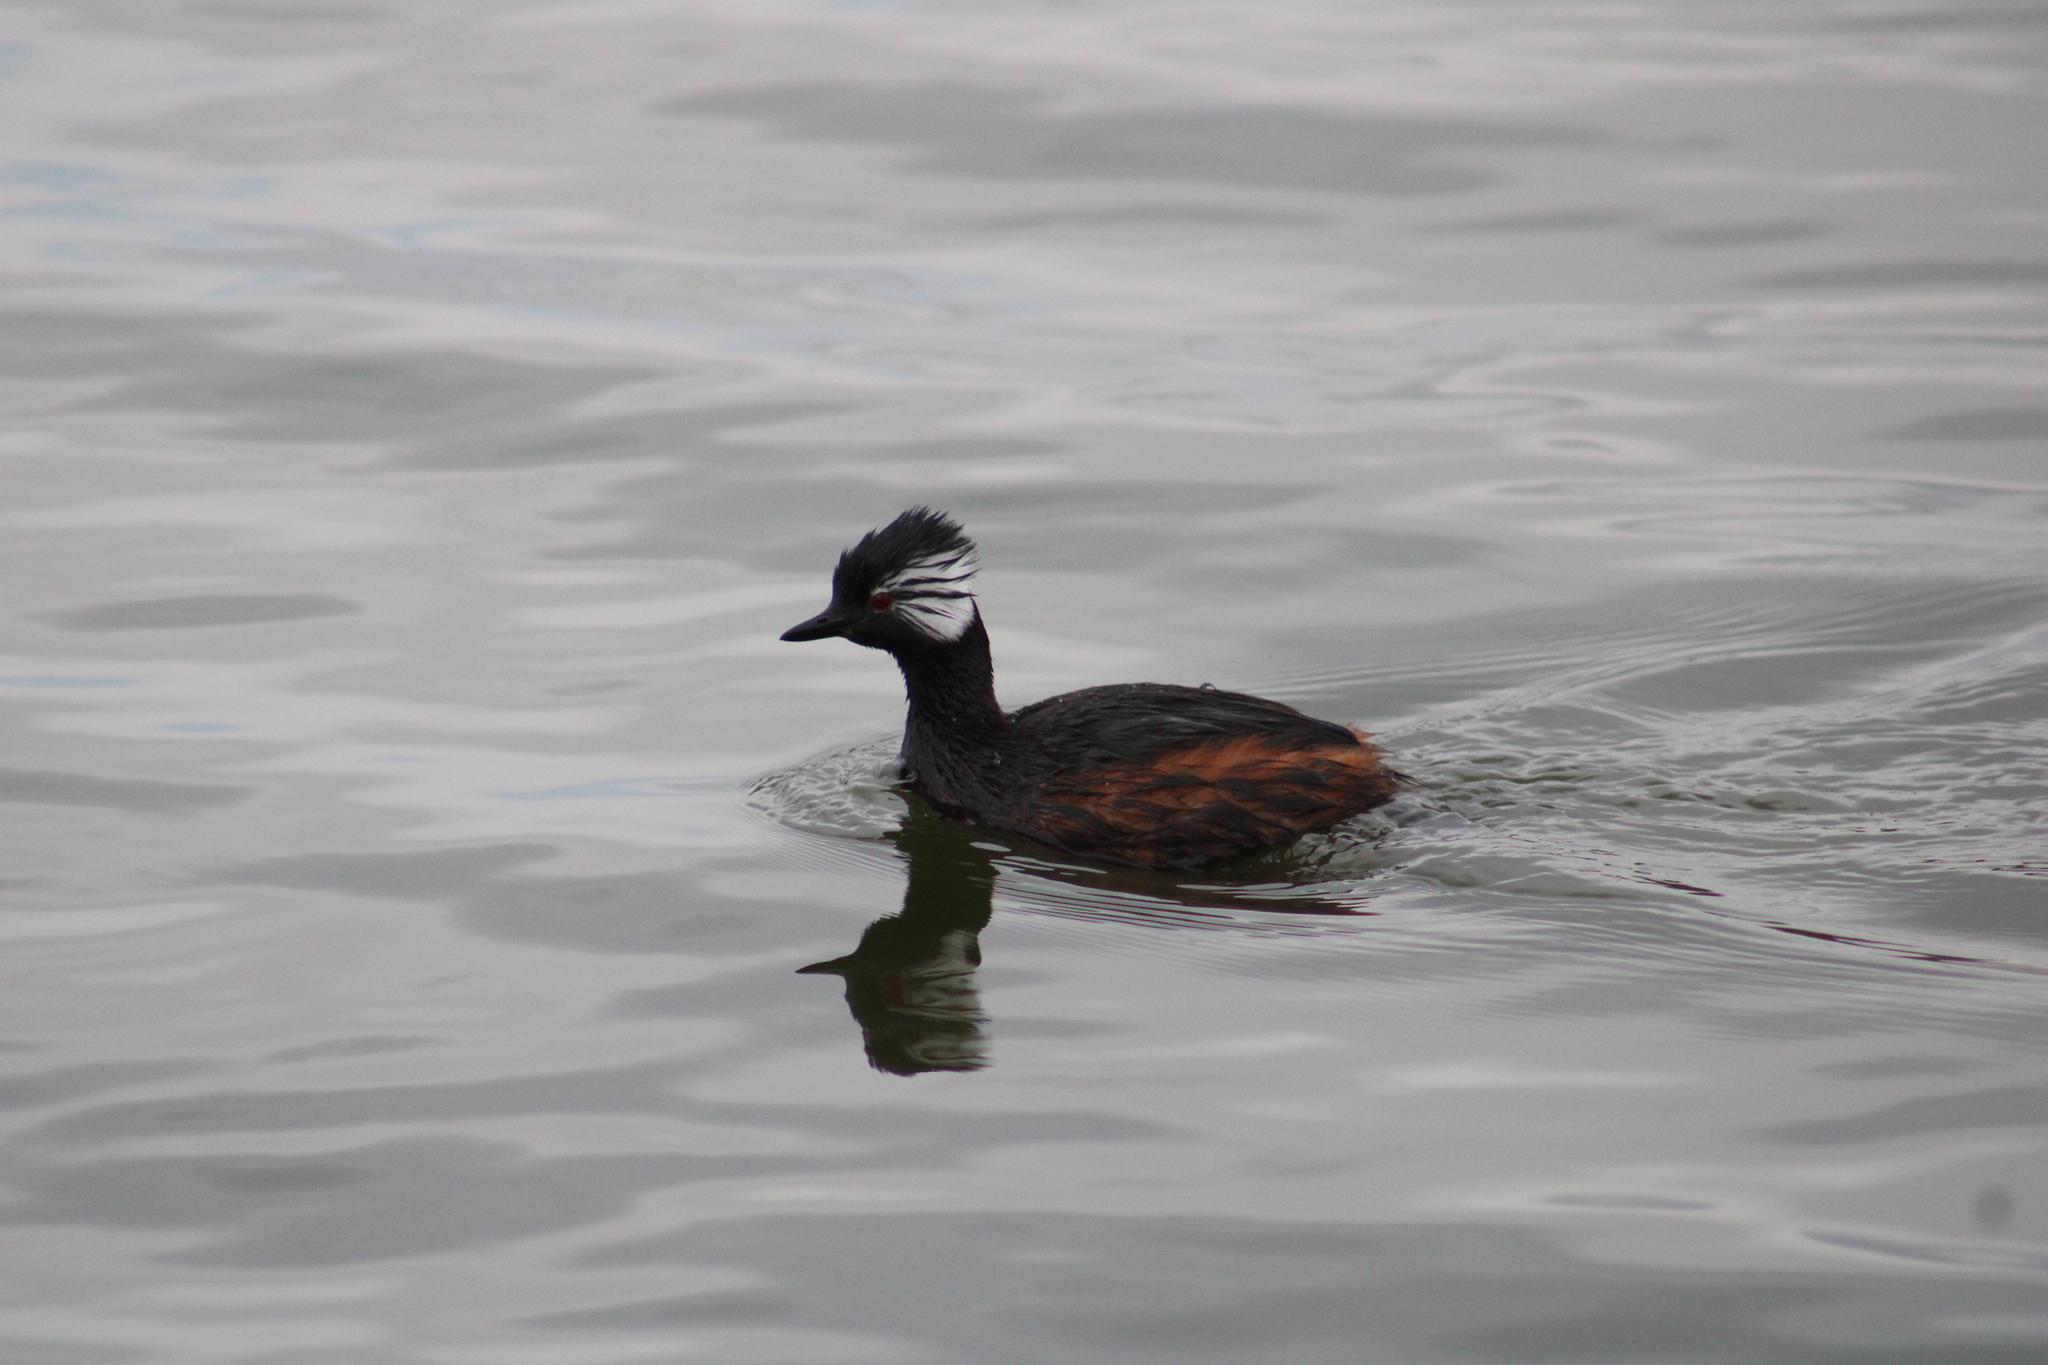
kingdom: Animalia
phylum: Chordata
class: Aves
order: Podicipediformes
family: Podicipedidae
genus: Rollandia
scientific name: Rollandia rolland
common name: White-tufted grebe
